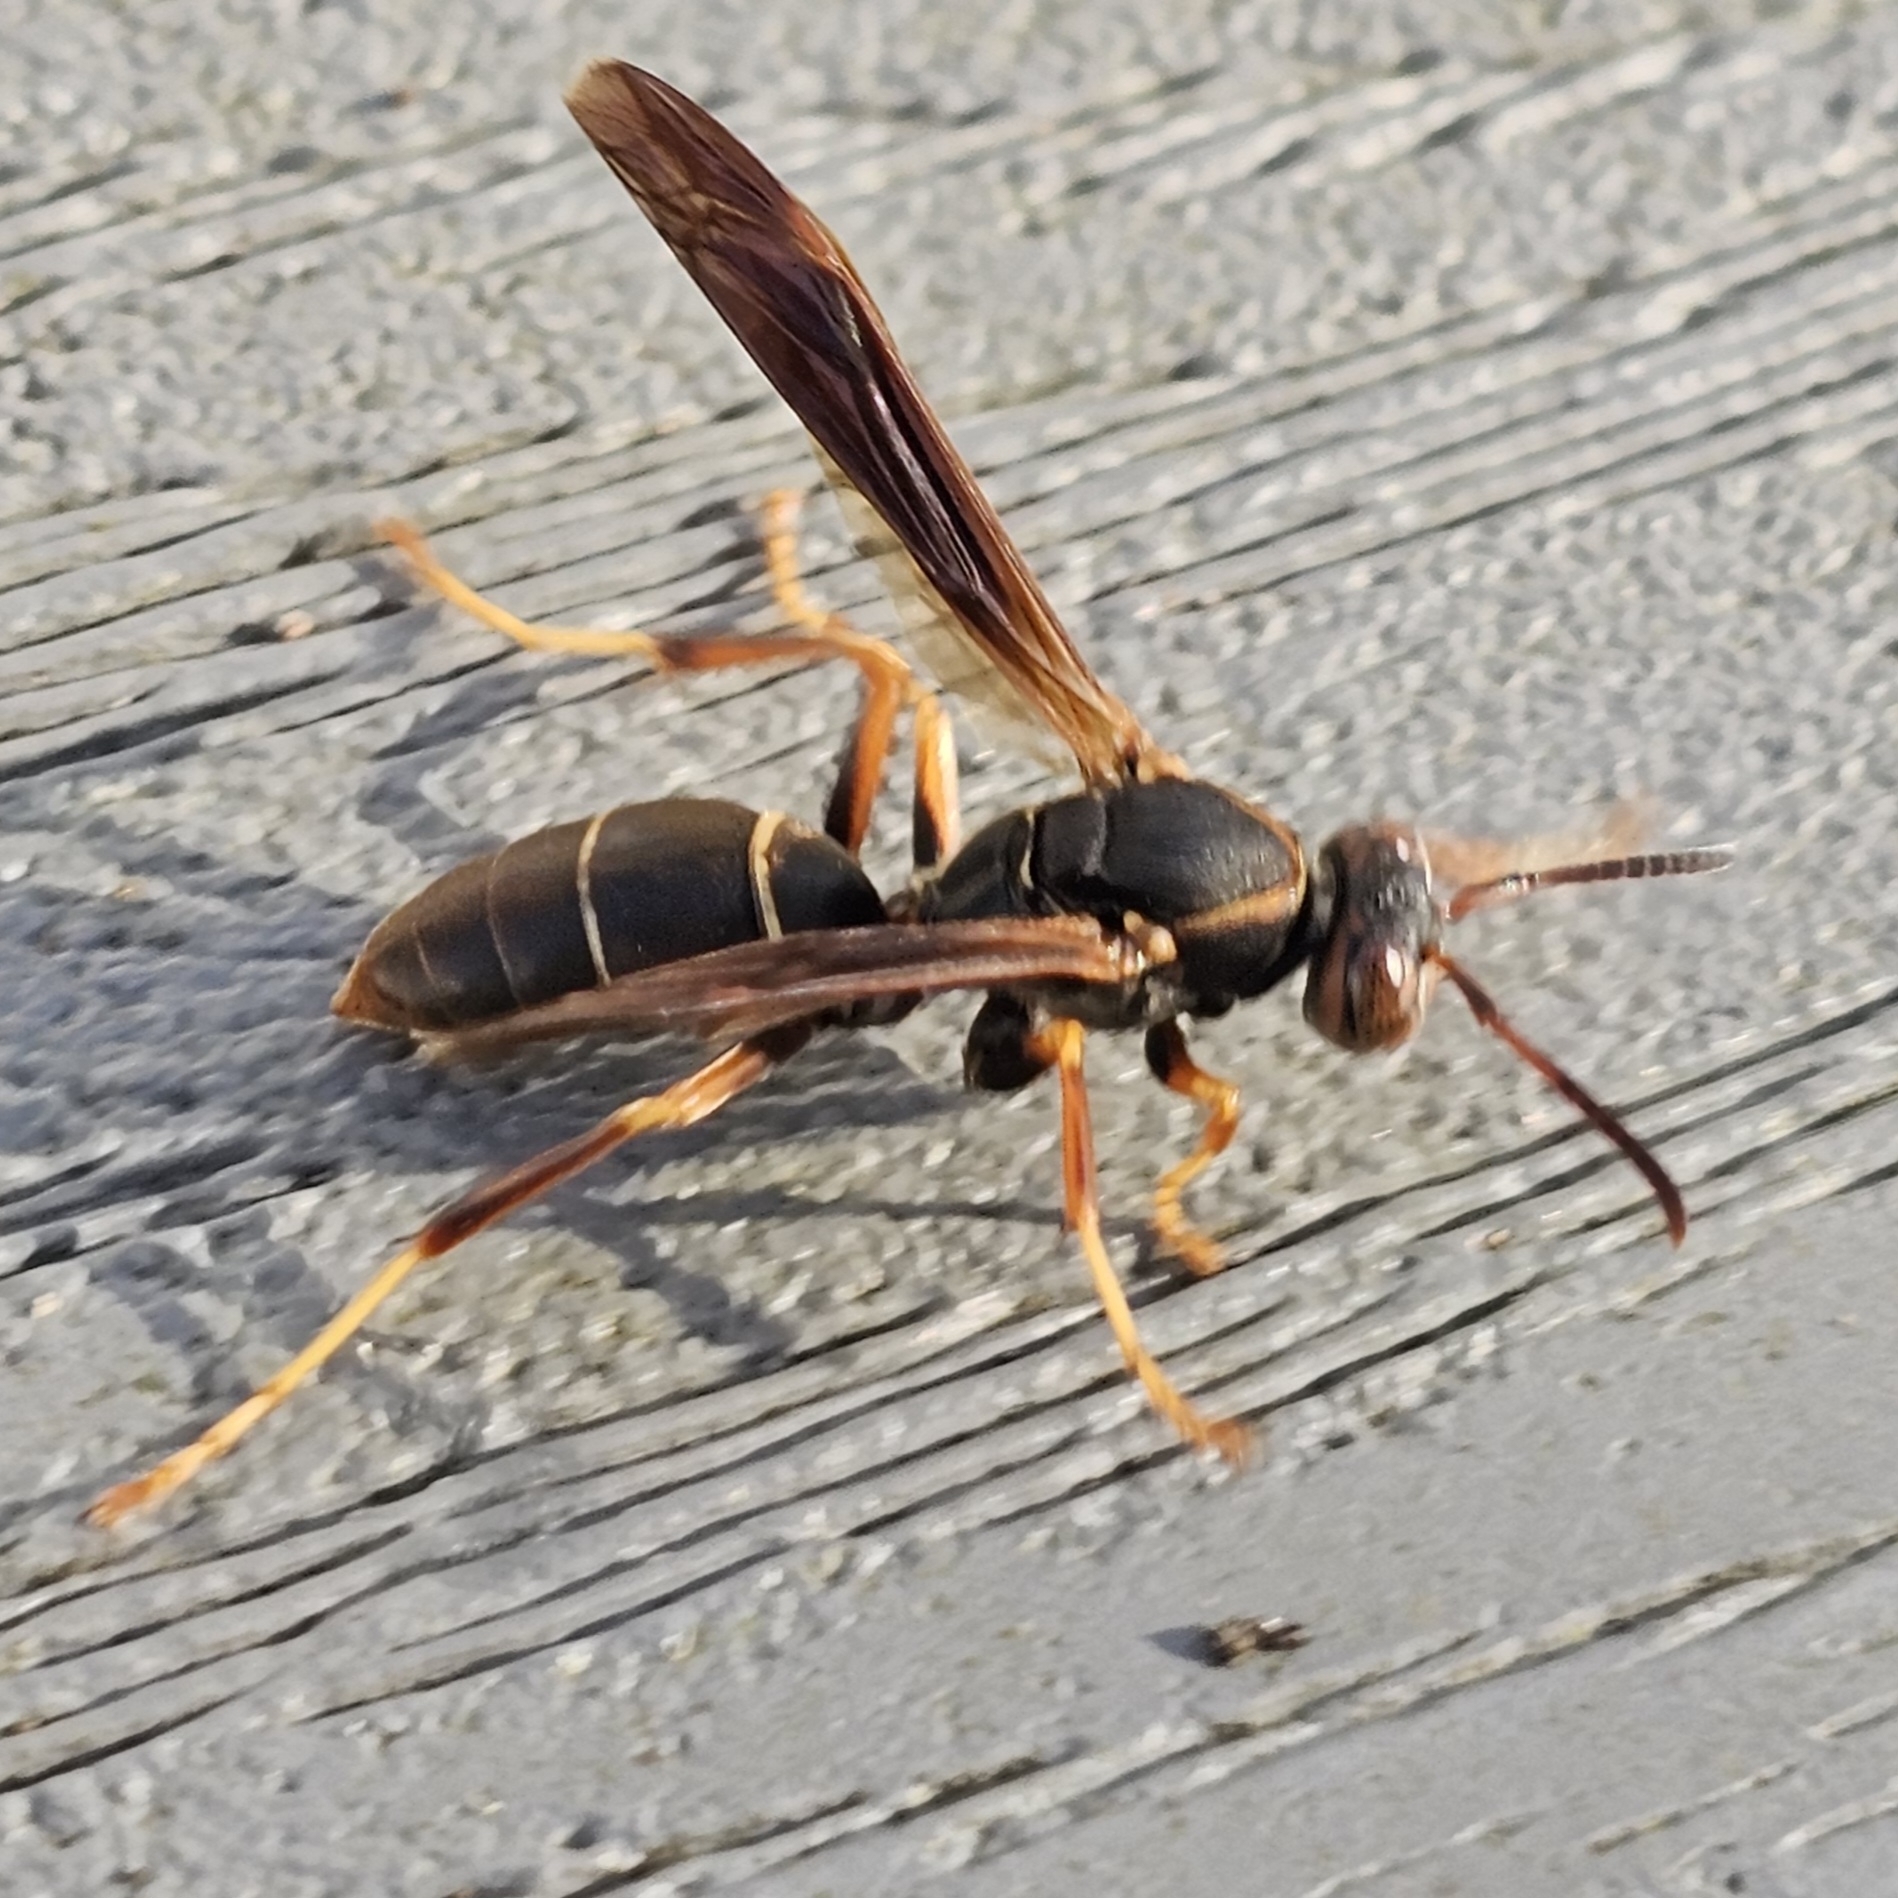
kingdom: Animalia
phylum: Arthropoda
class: Insecta
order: Hymenoptera
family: Eumenidae
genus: Polistes
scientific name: Polistes fuscatus
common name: Dark paper wasp
